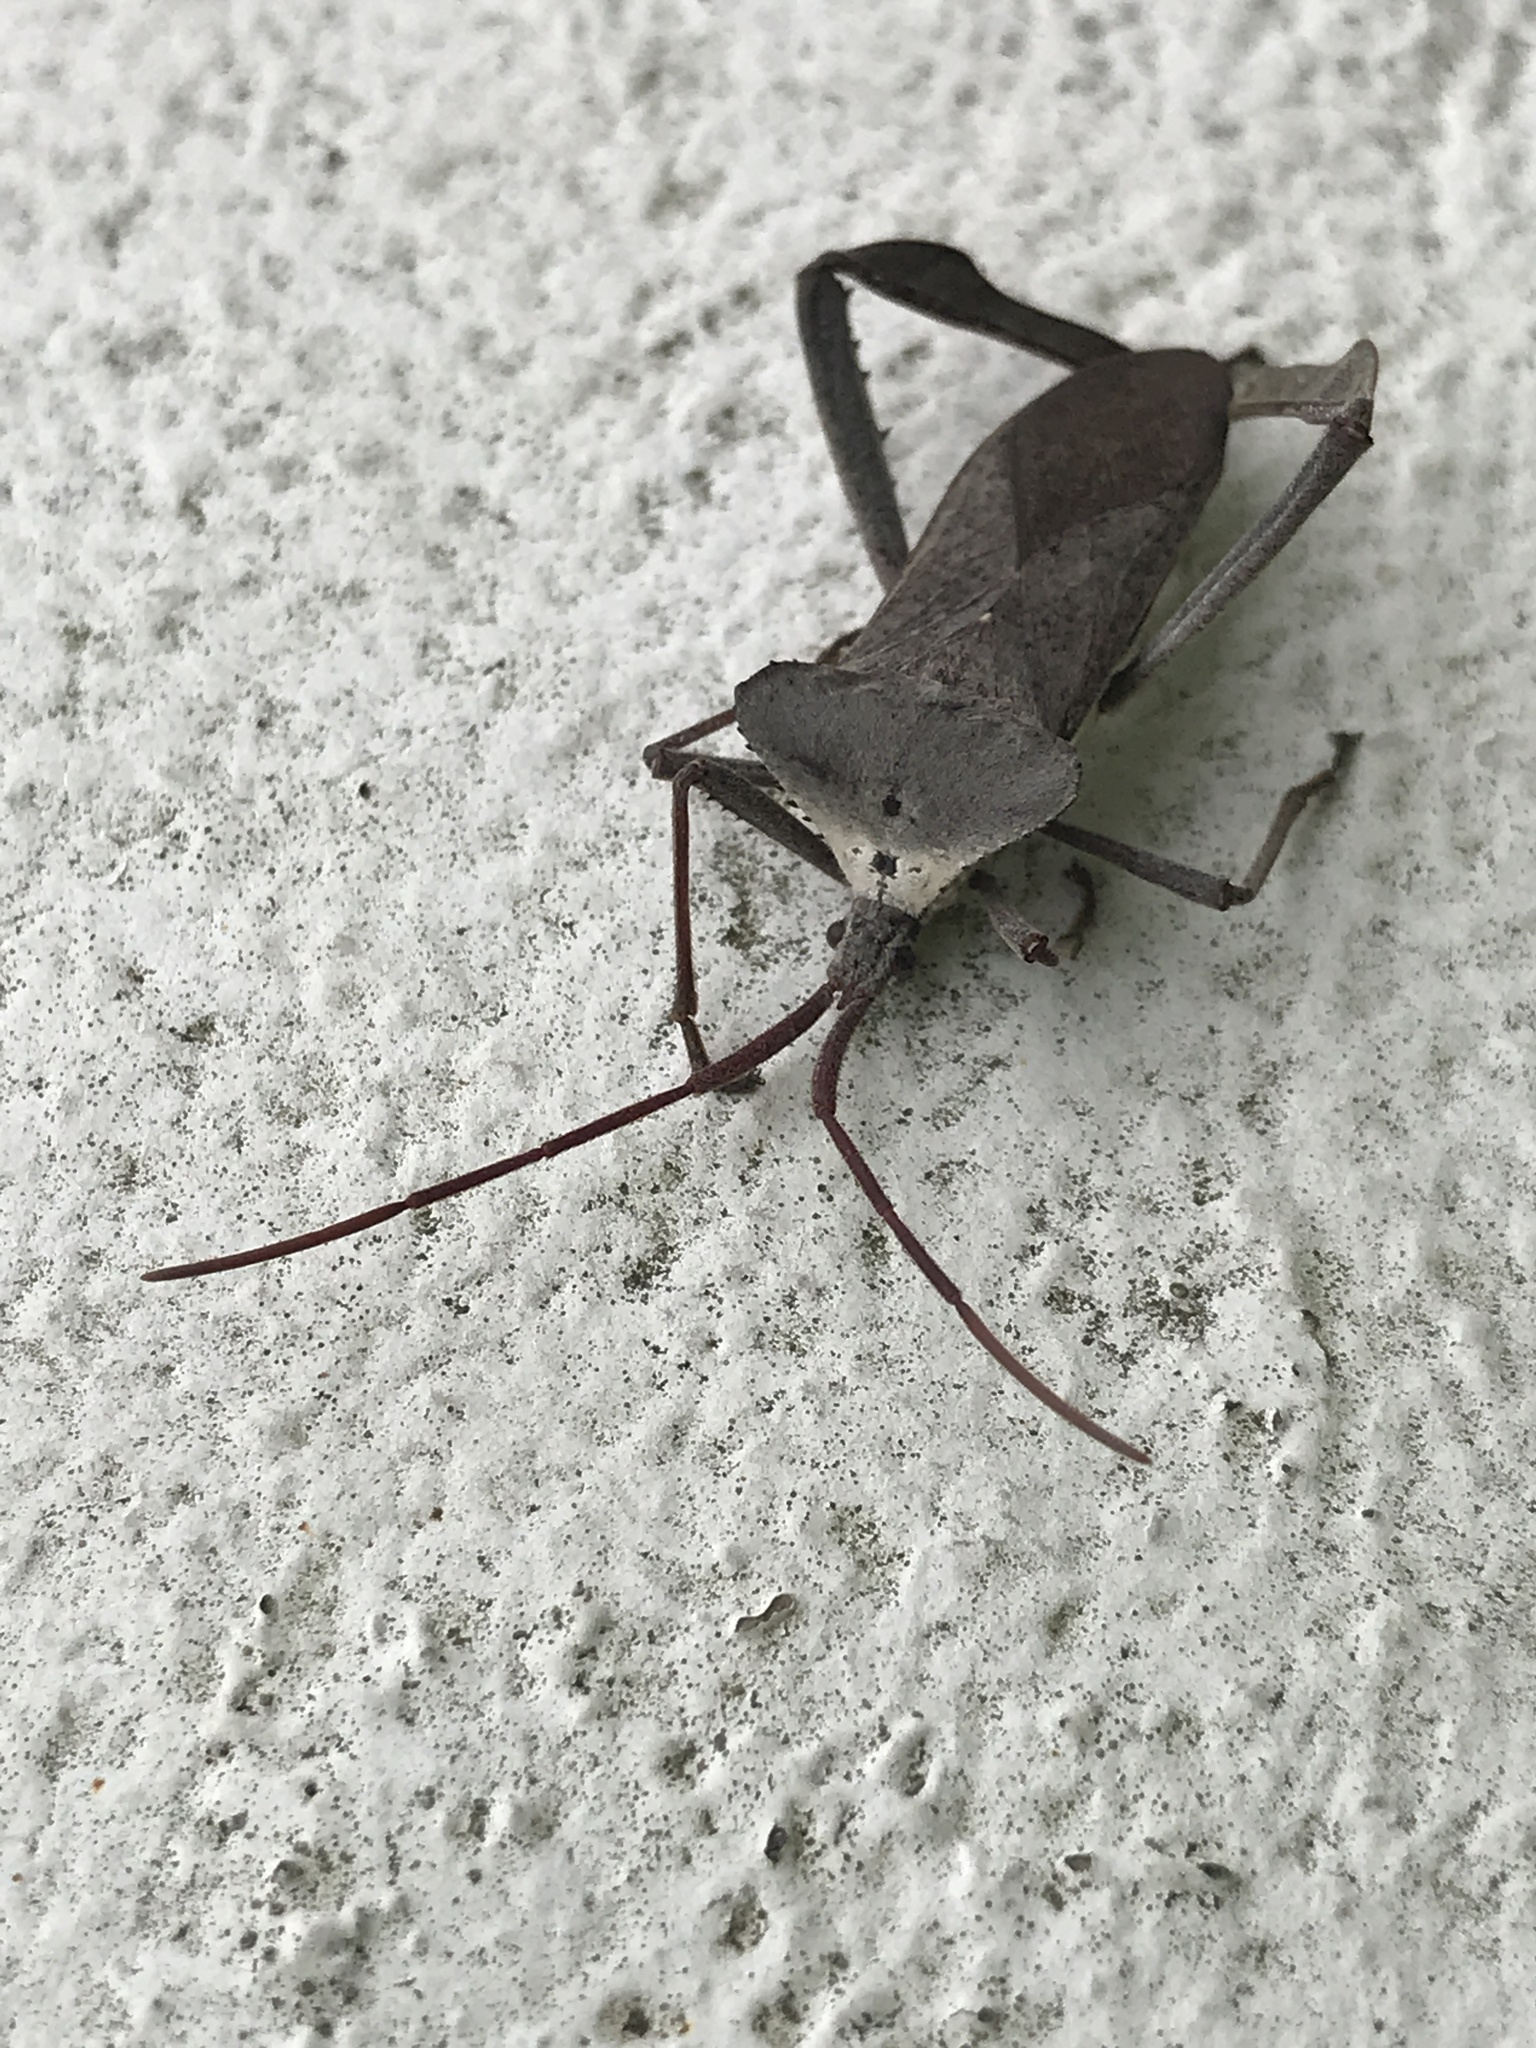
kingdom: Animalia
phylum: Arthropoda
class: Insecta
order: Hemiptera
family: Coreidae
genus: Acanthocephala
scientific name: Acanthocephala declivis
